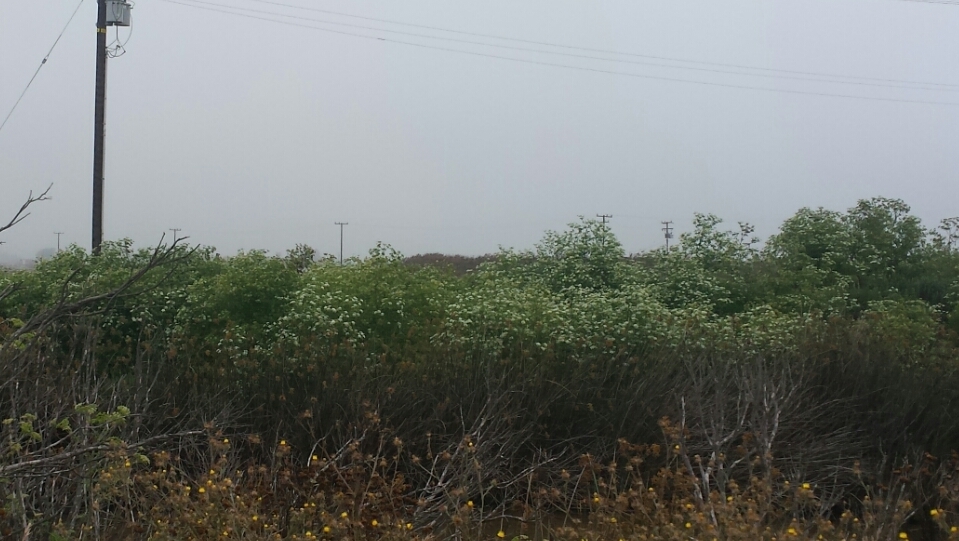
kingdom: Plantae
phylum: Tracheophyta
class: Magnoliopsida
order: Apiales
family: Apiaceae
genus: Conium
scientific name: Conium maculatum
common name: Hemlock
